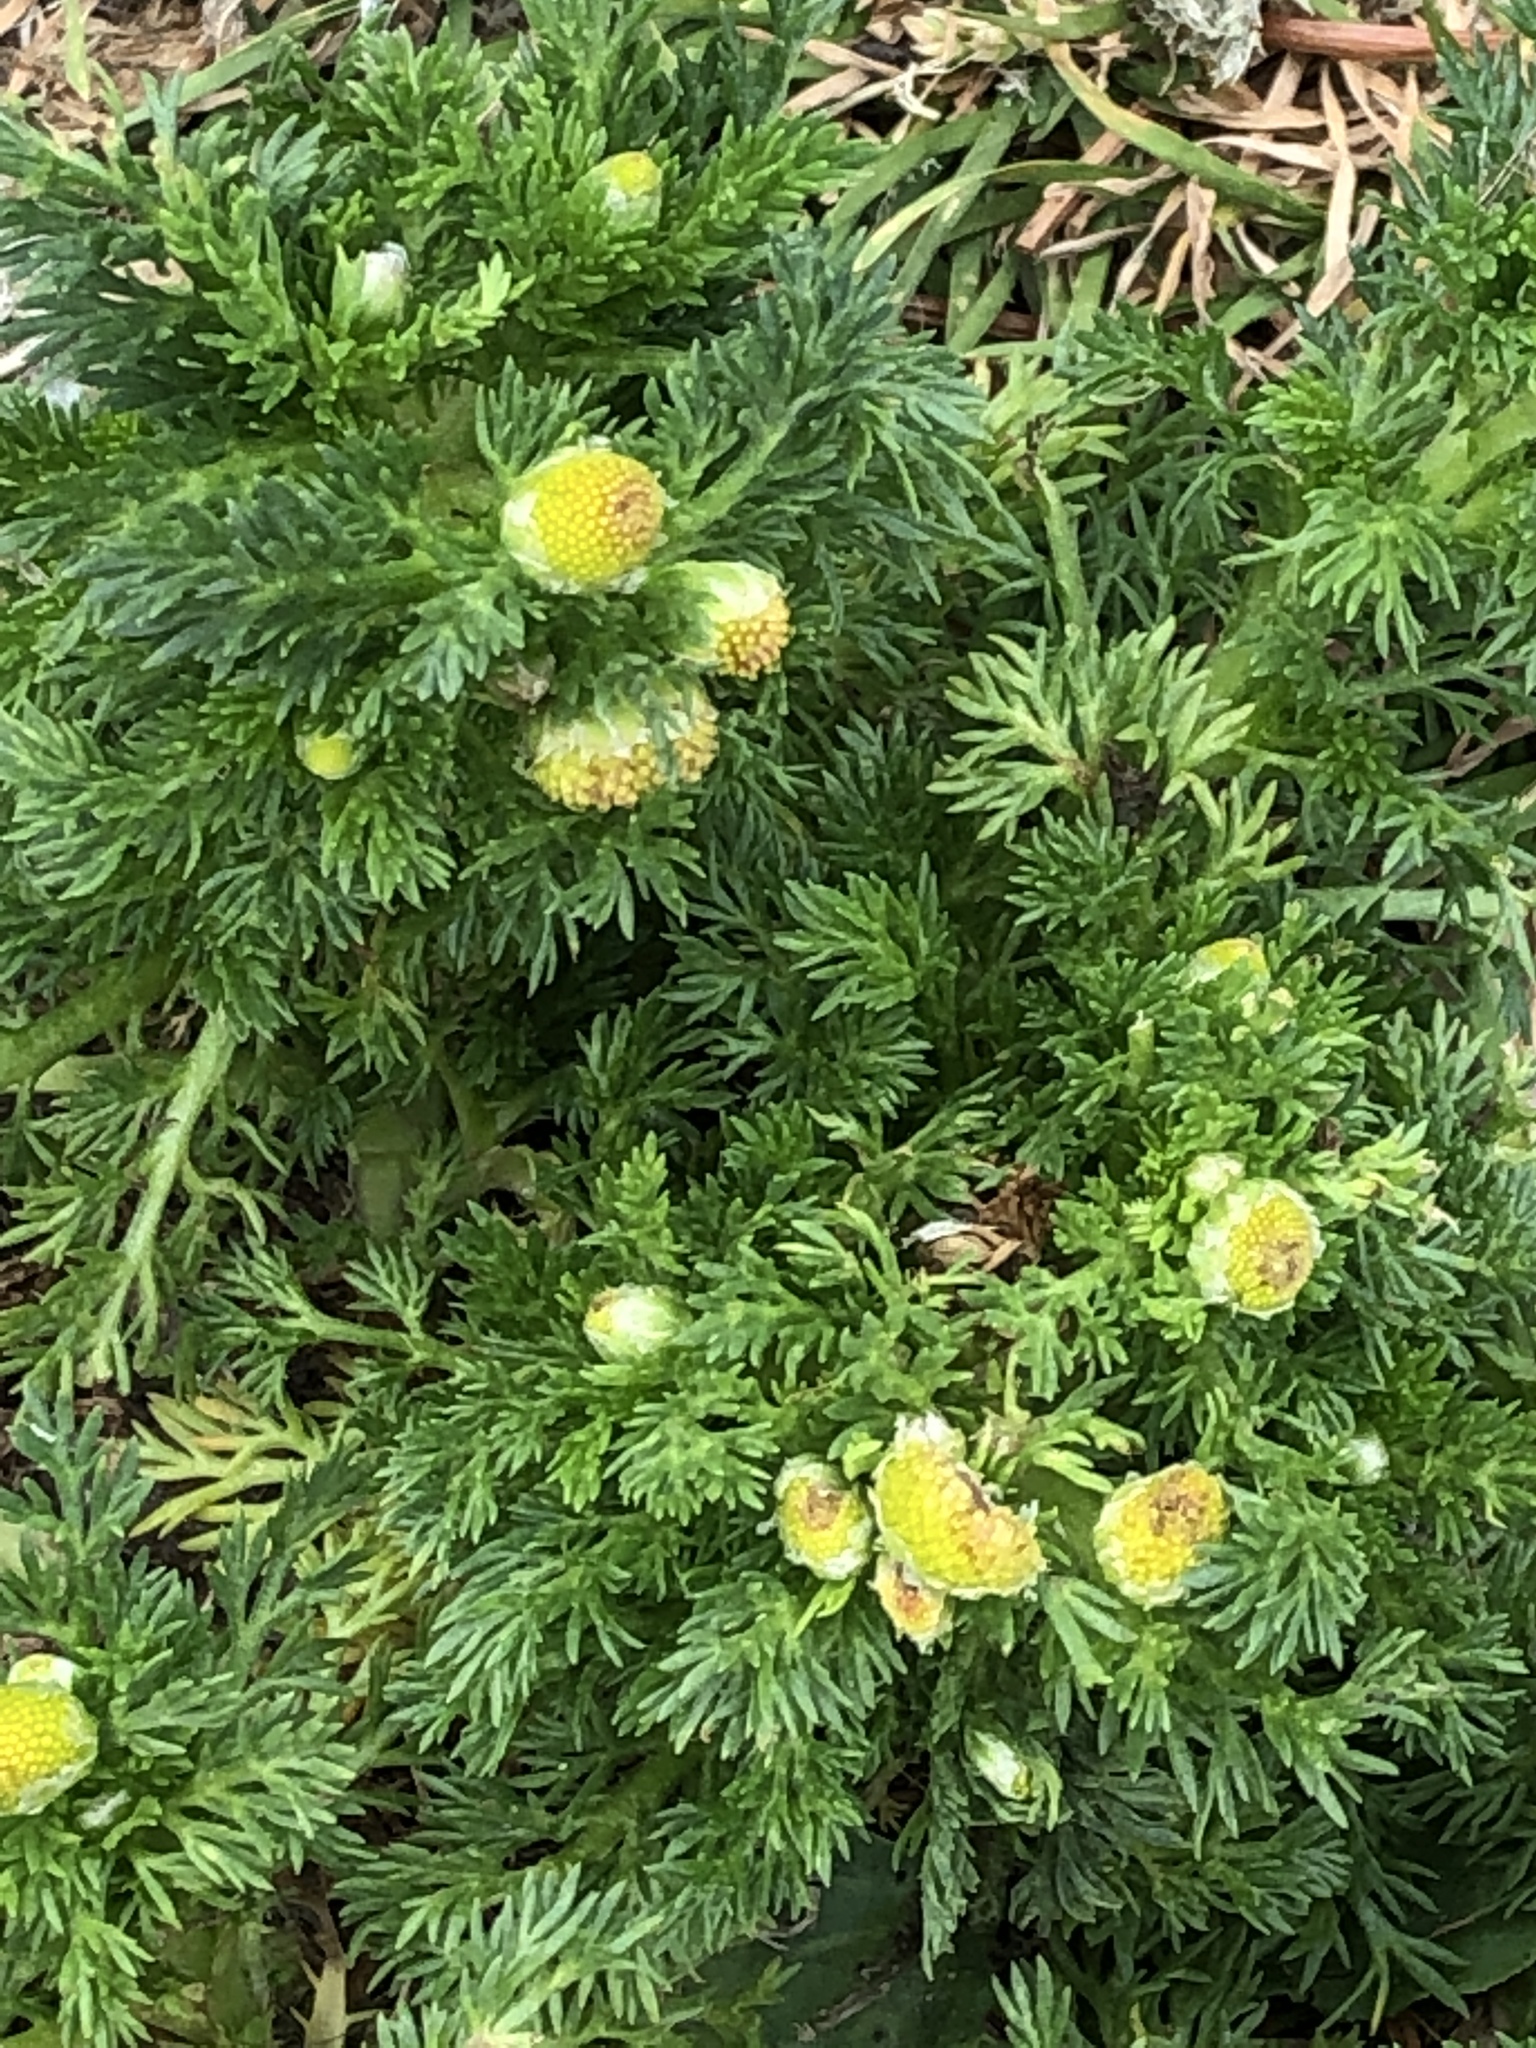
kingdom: Plantae
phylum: Tracheophyta
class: Magnoliopsida
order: Asterales
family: Asteraceae
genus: Matricaria
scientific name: Matricaria discoidea
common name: Disc mayweed
